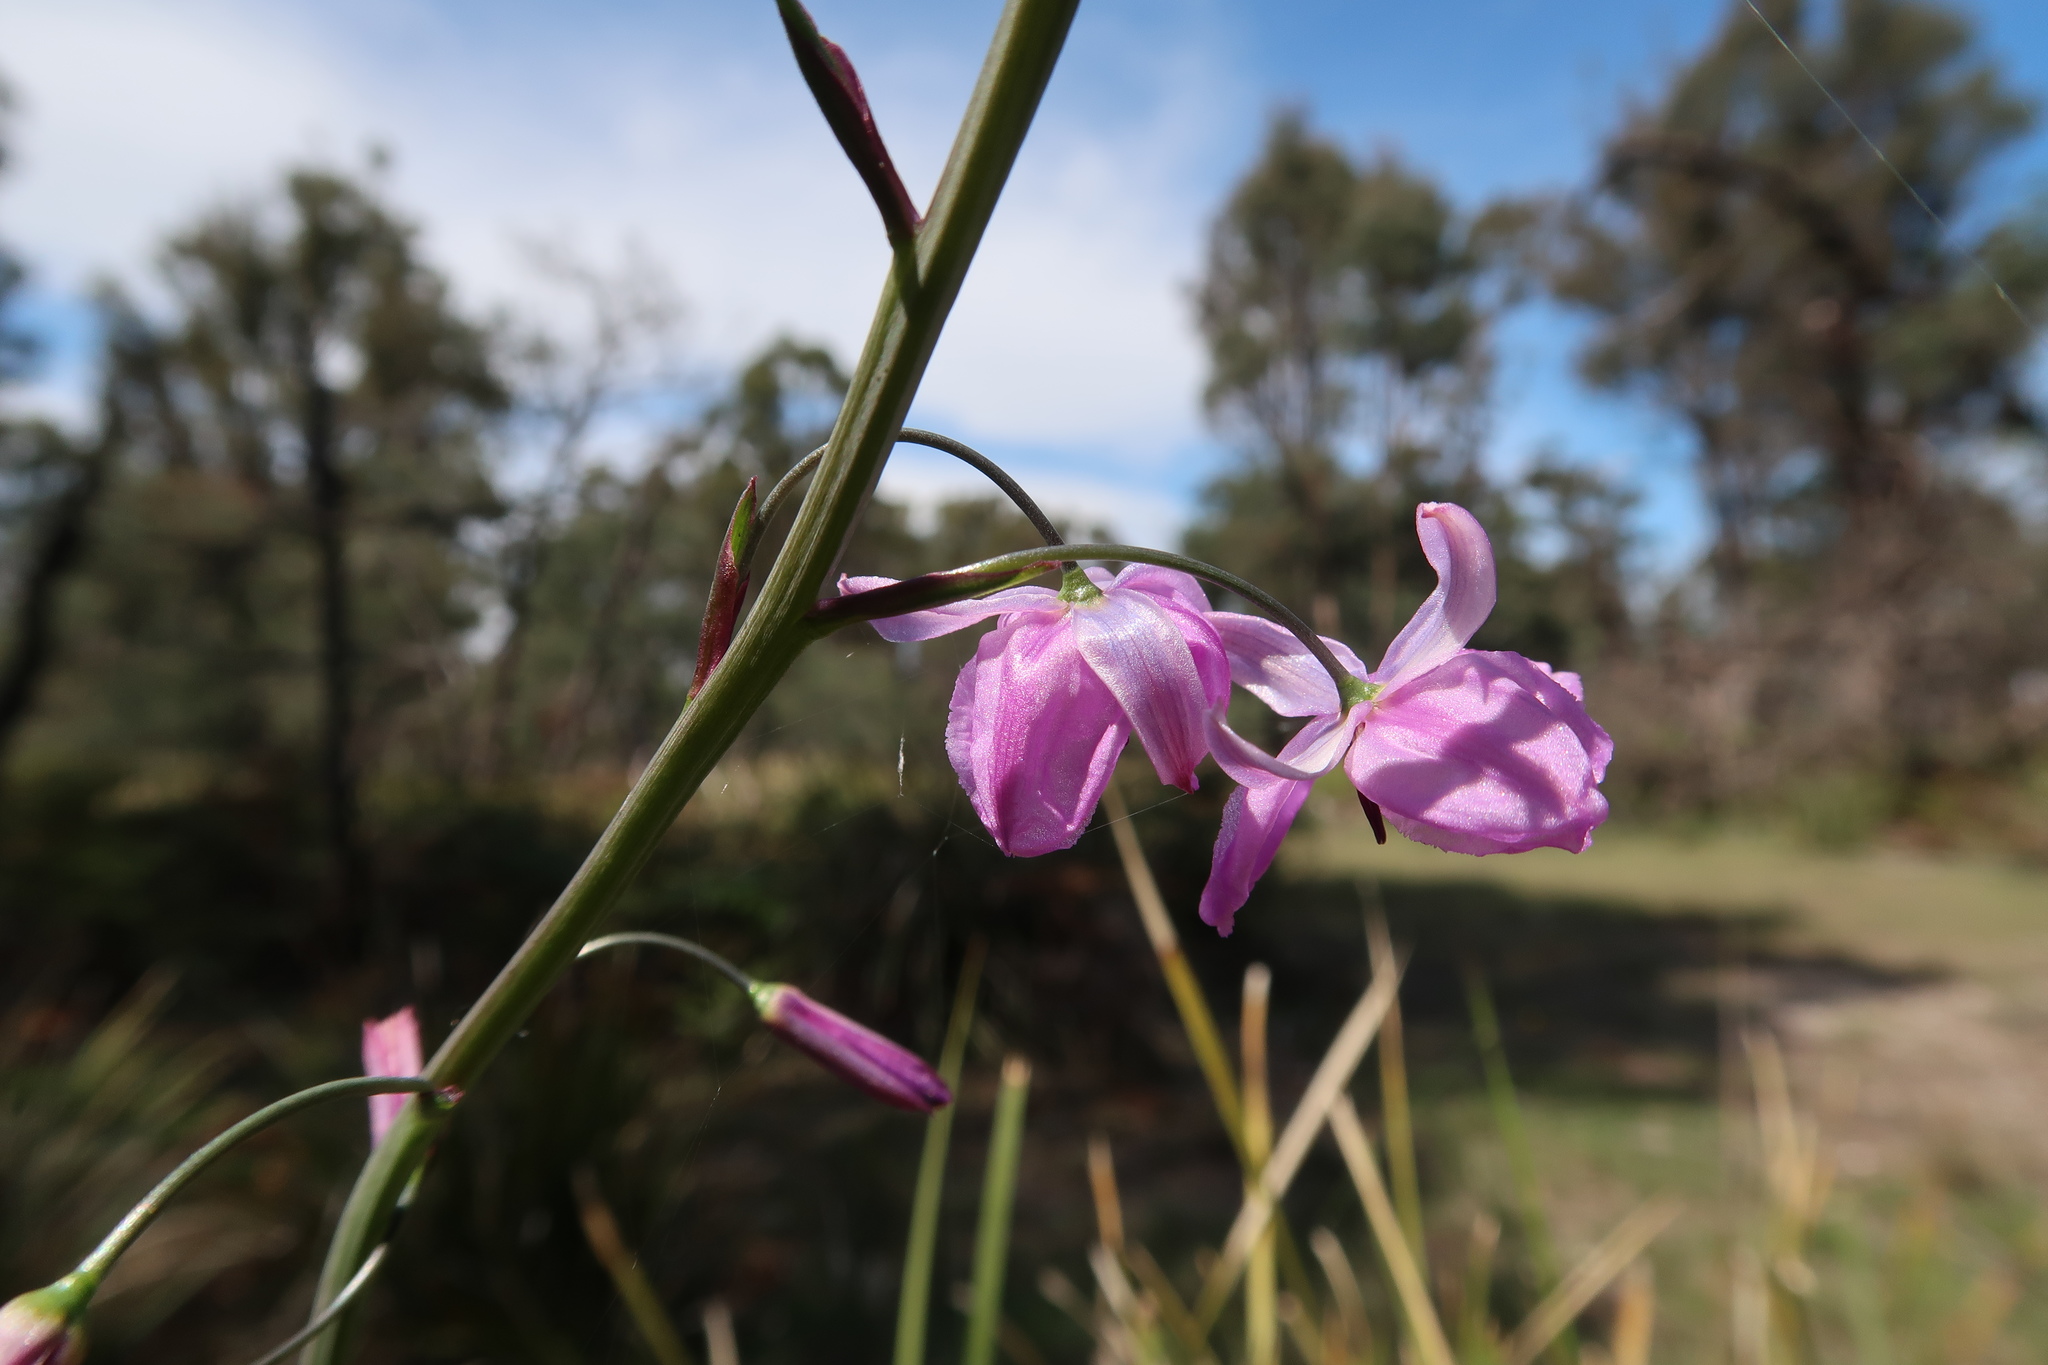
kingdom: Plantae
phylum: Tracheophyta
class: Liliopsida
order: Asparagales
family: Asparagaceae
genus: Arthropodium
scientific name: Arthropodium strictum
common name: Chocolate-lily
